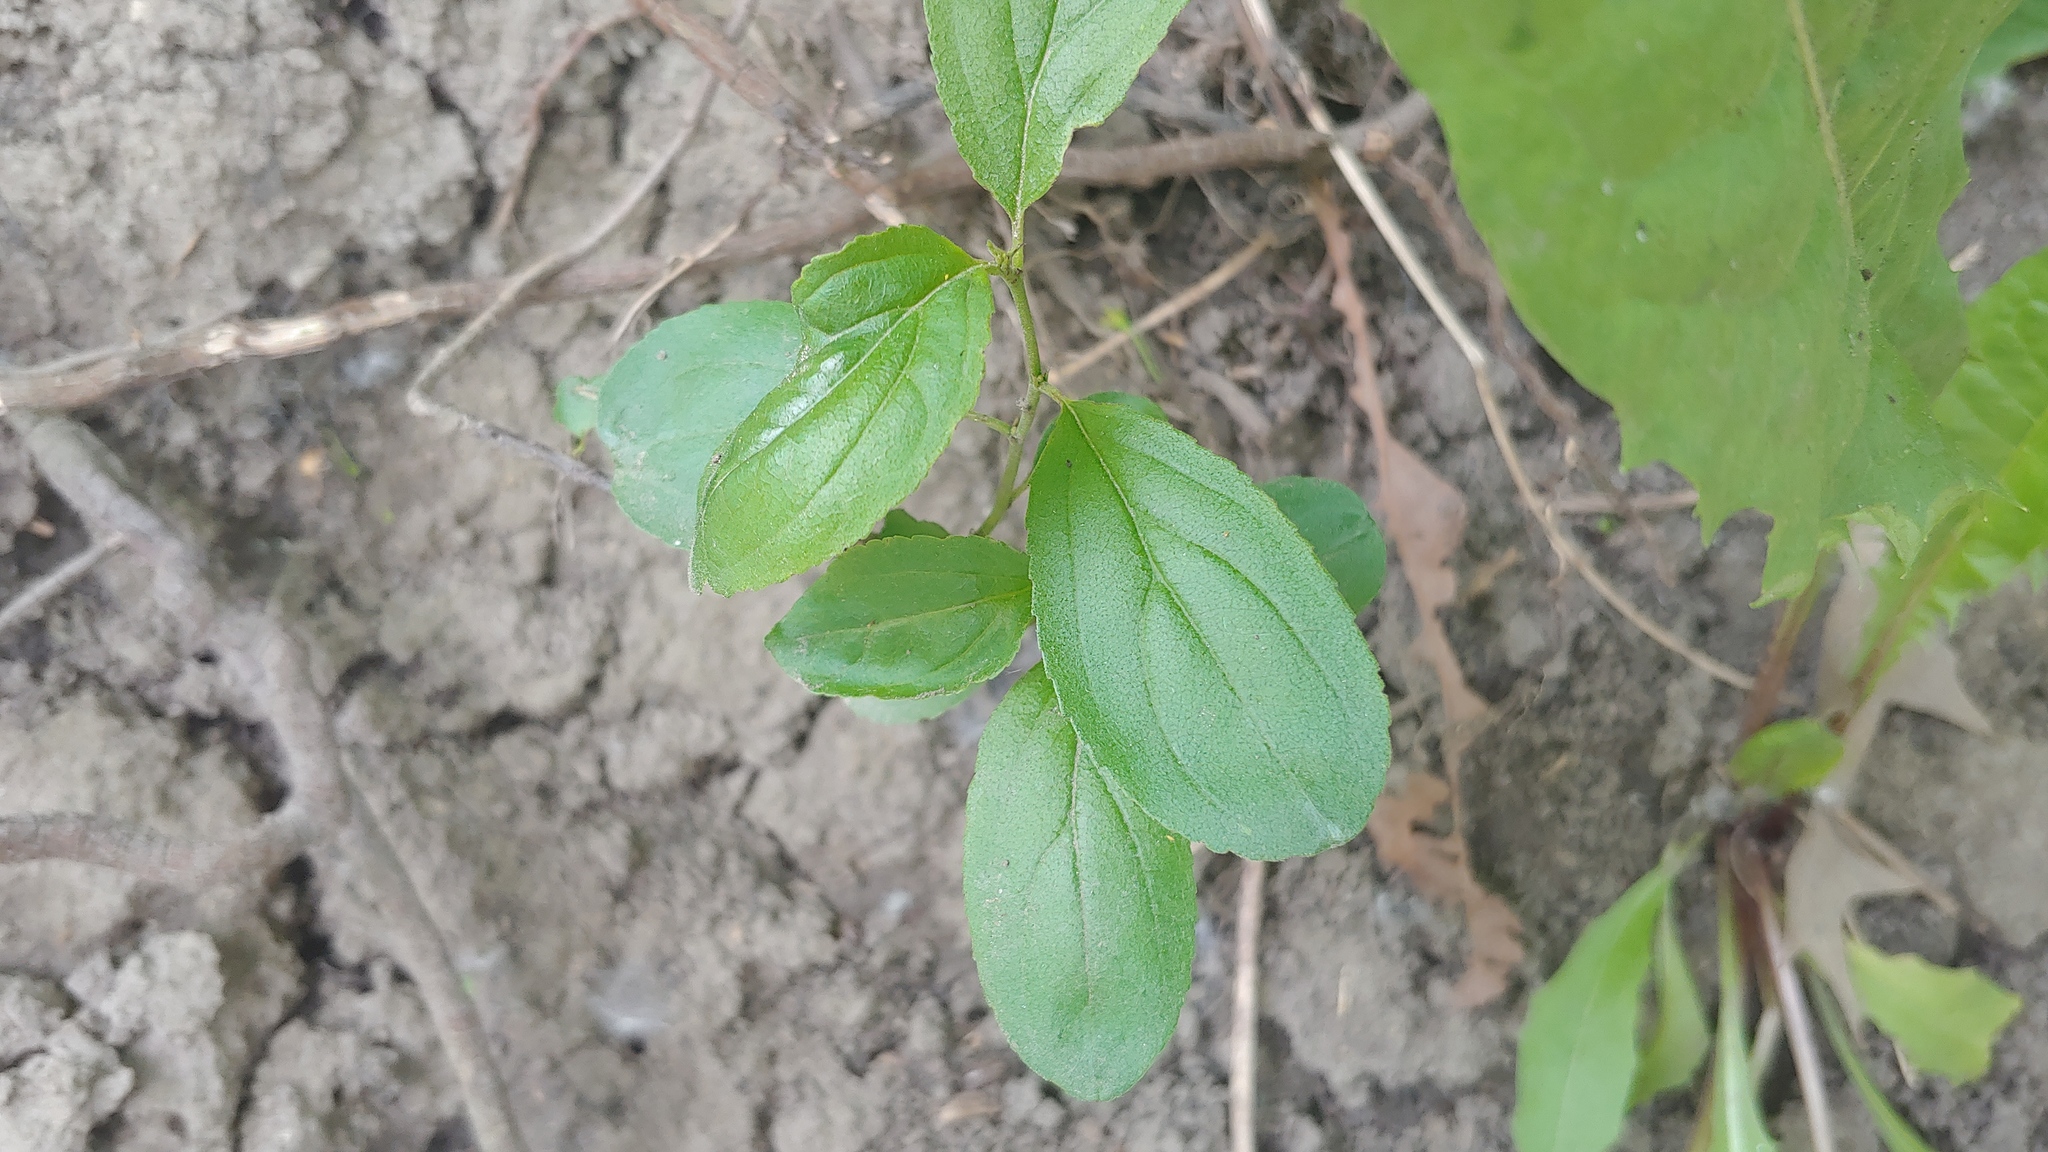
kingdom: Plantae
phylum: Tracheophyta
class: Magnoliopsida
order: Rosales
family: Rhamnaceae
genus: Rhamnus
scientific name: Rhamnus cathartica
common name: Common buckthorn
